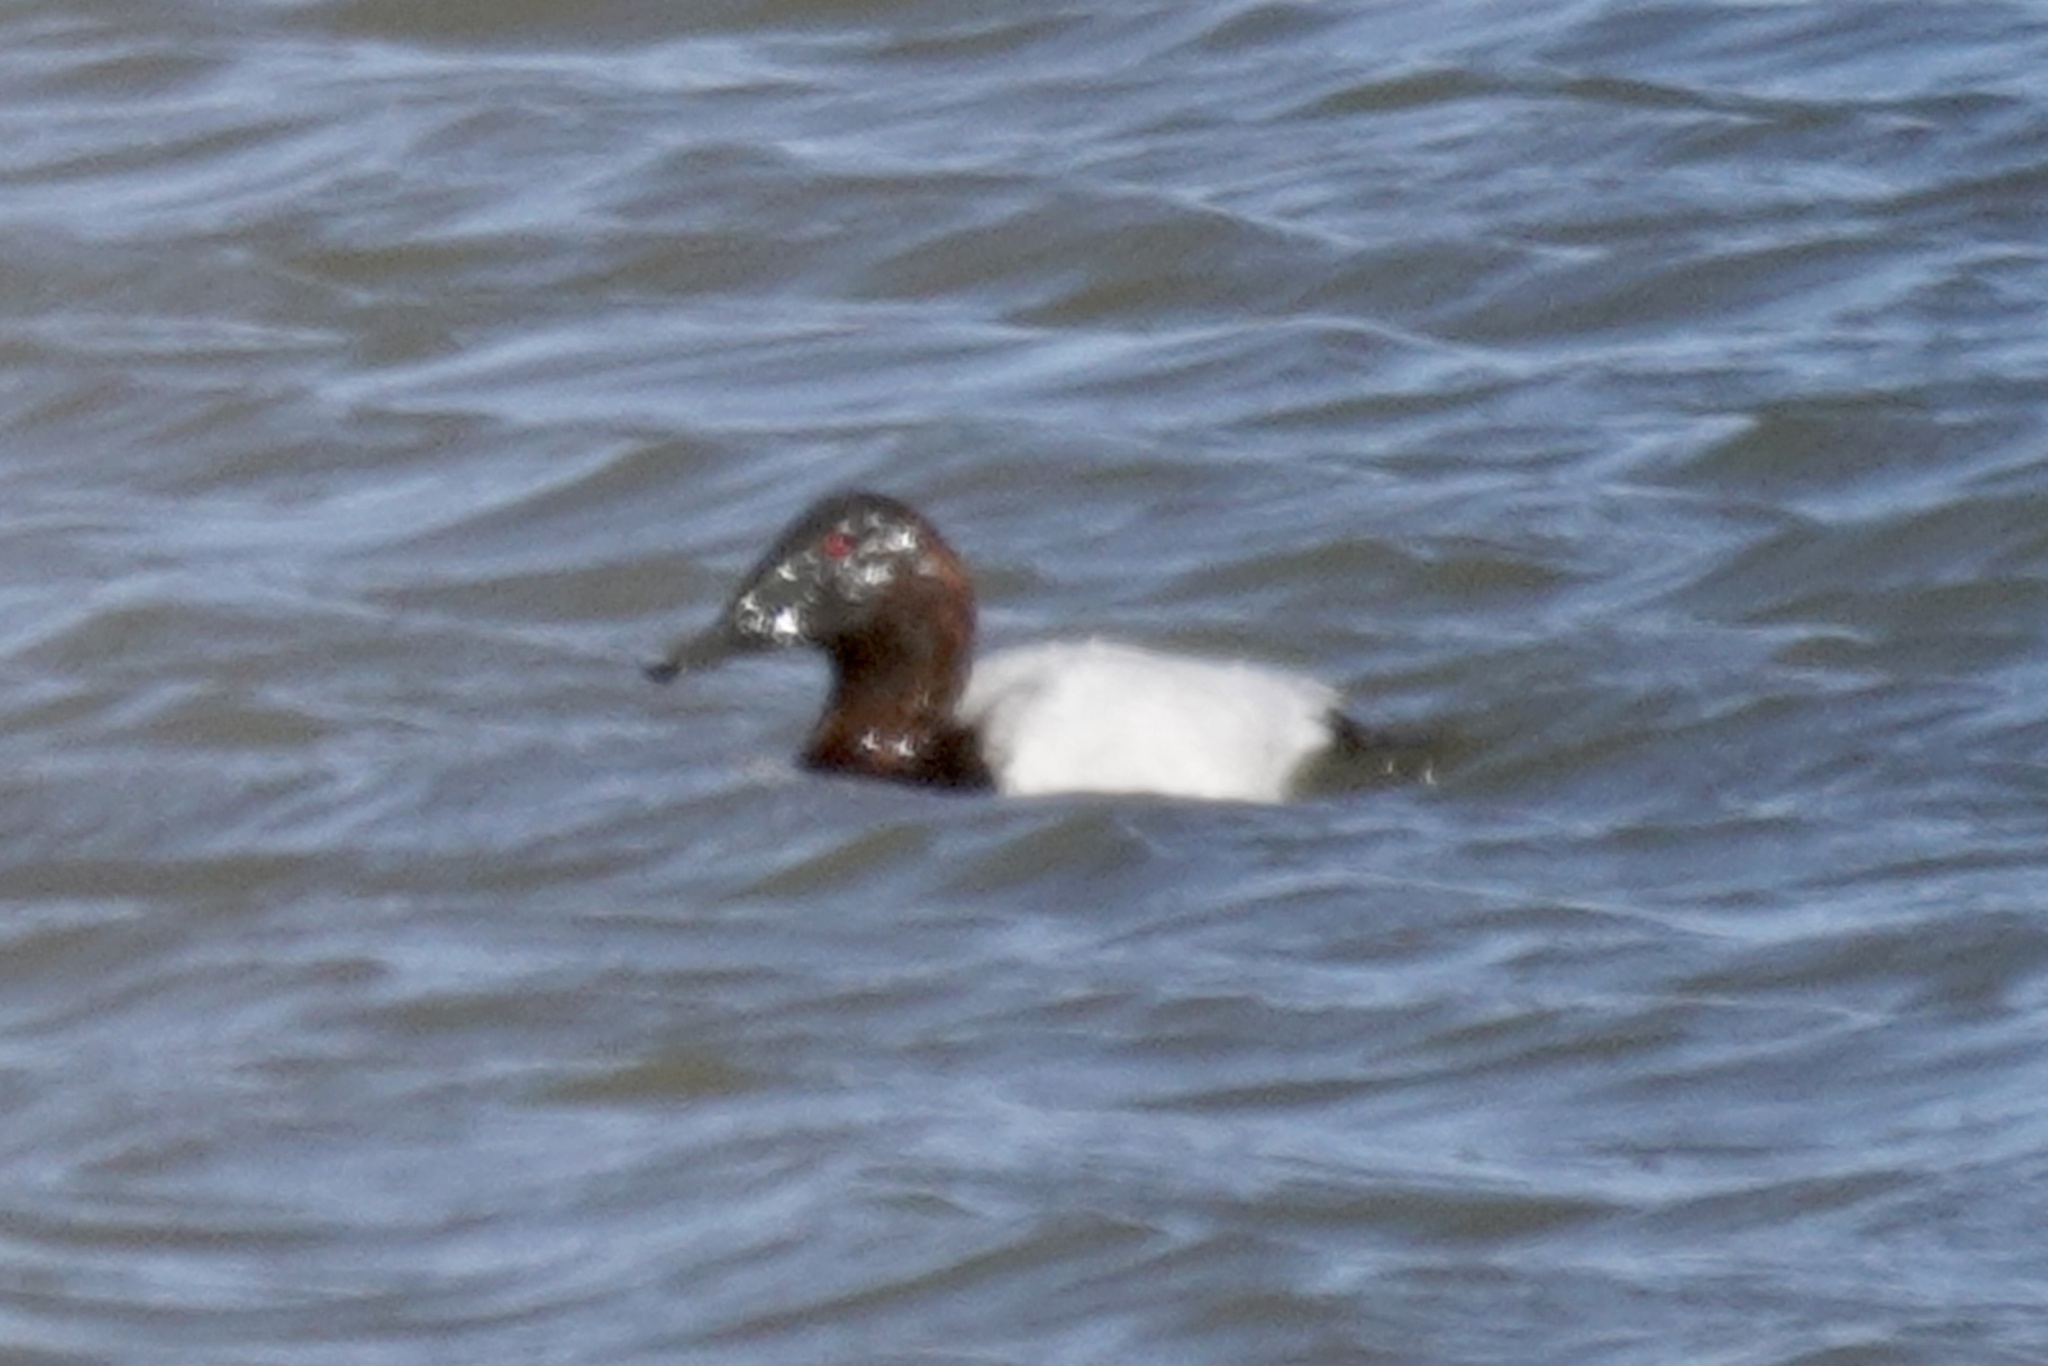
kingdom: Animalia
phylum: Chordata
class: Aves
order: Anseriformes
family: Anatidae
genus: Aythya
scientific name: Aythya valisineria
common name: Canvasback
